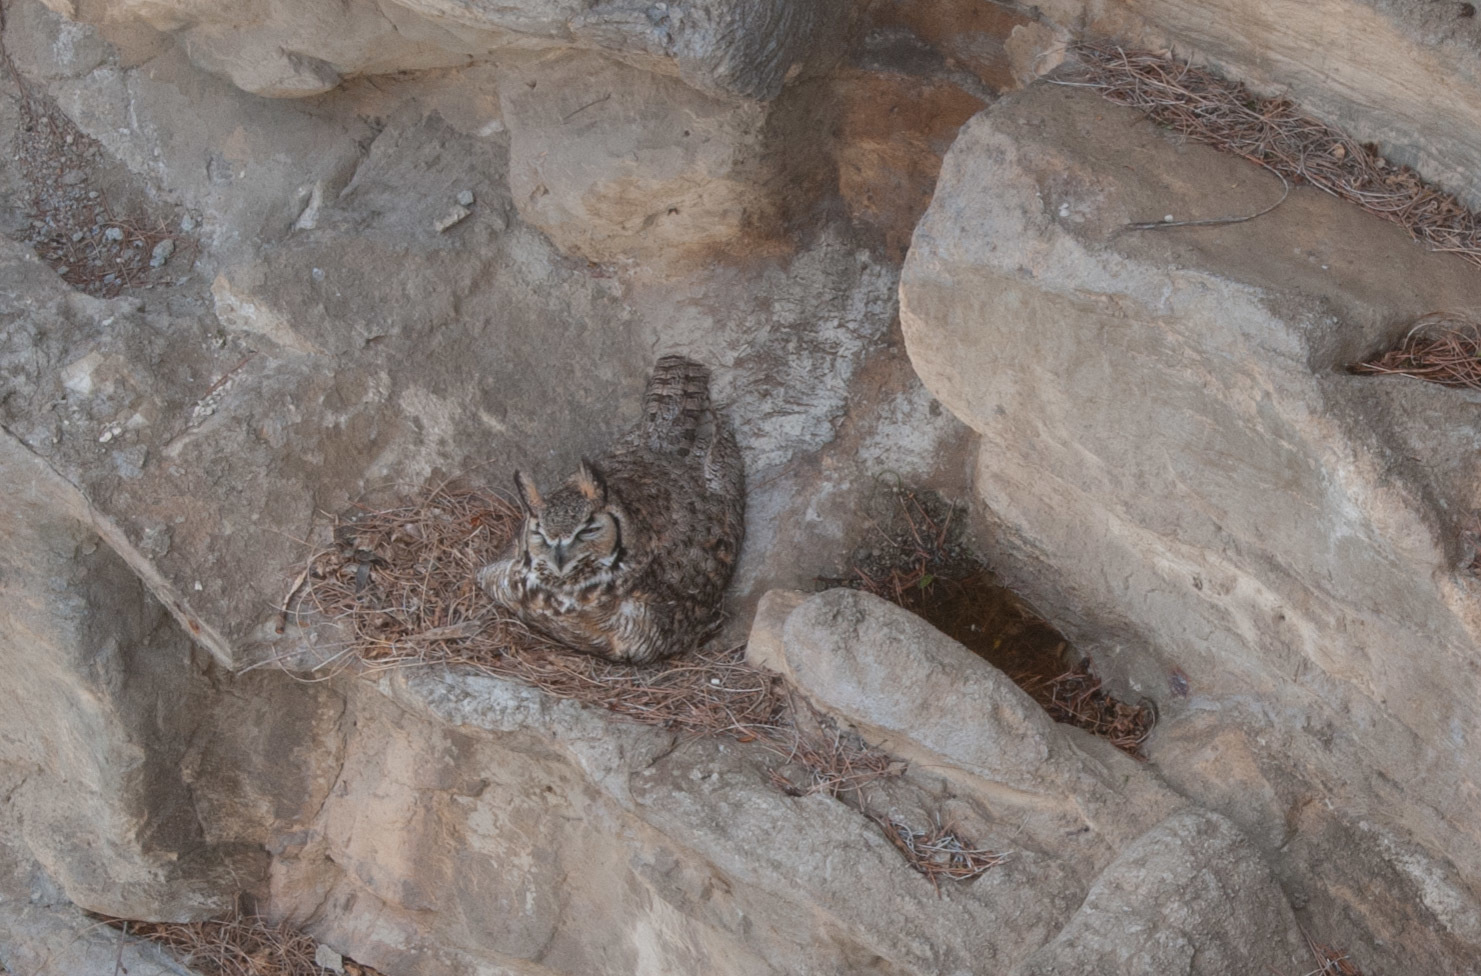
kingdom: Animalia
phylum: Chordata
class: Aves
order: Strigiformes
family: Strigidae
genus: Bubo
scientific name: Bubo virginianus
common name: Great horned owl
